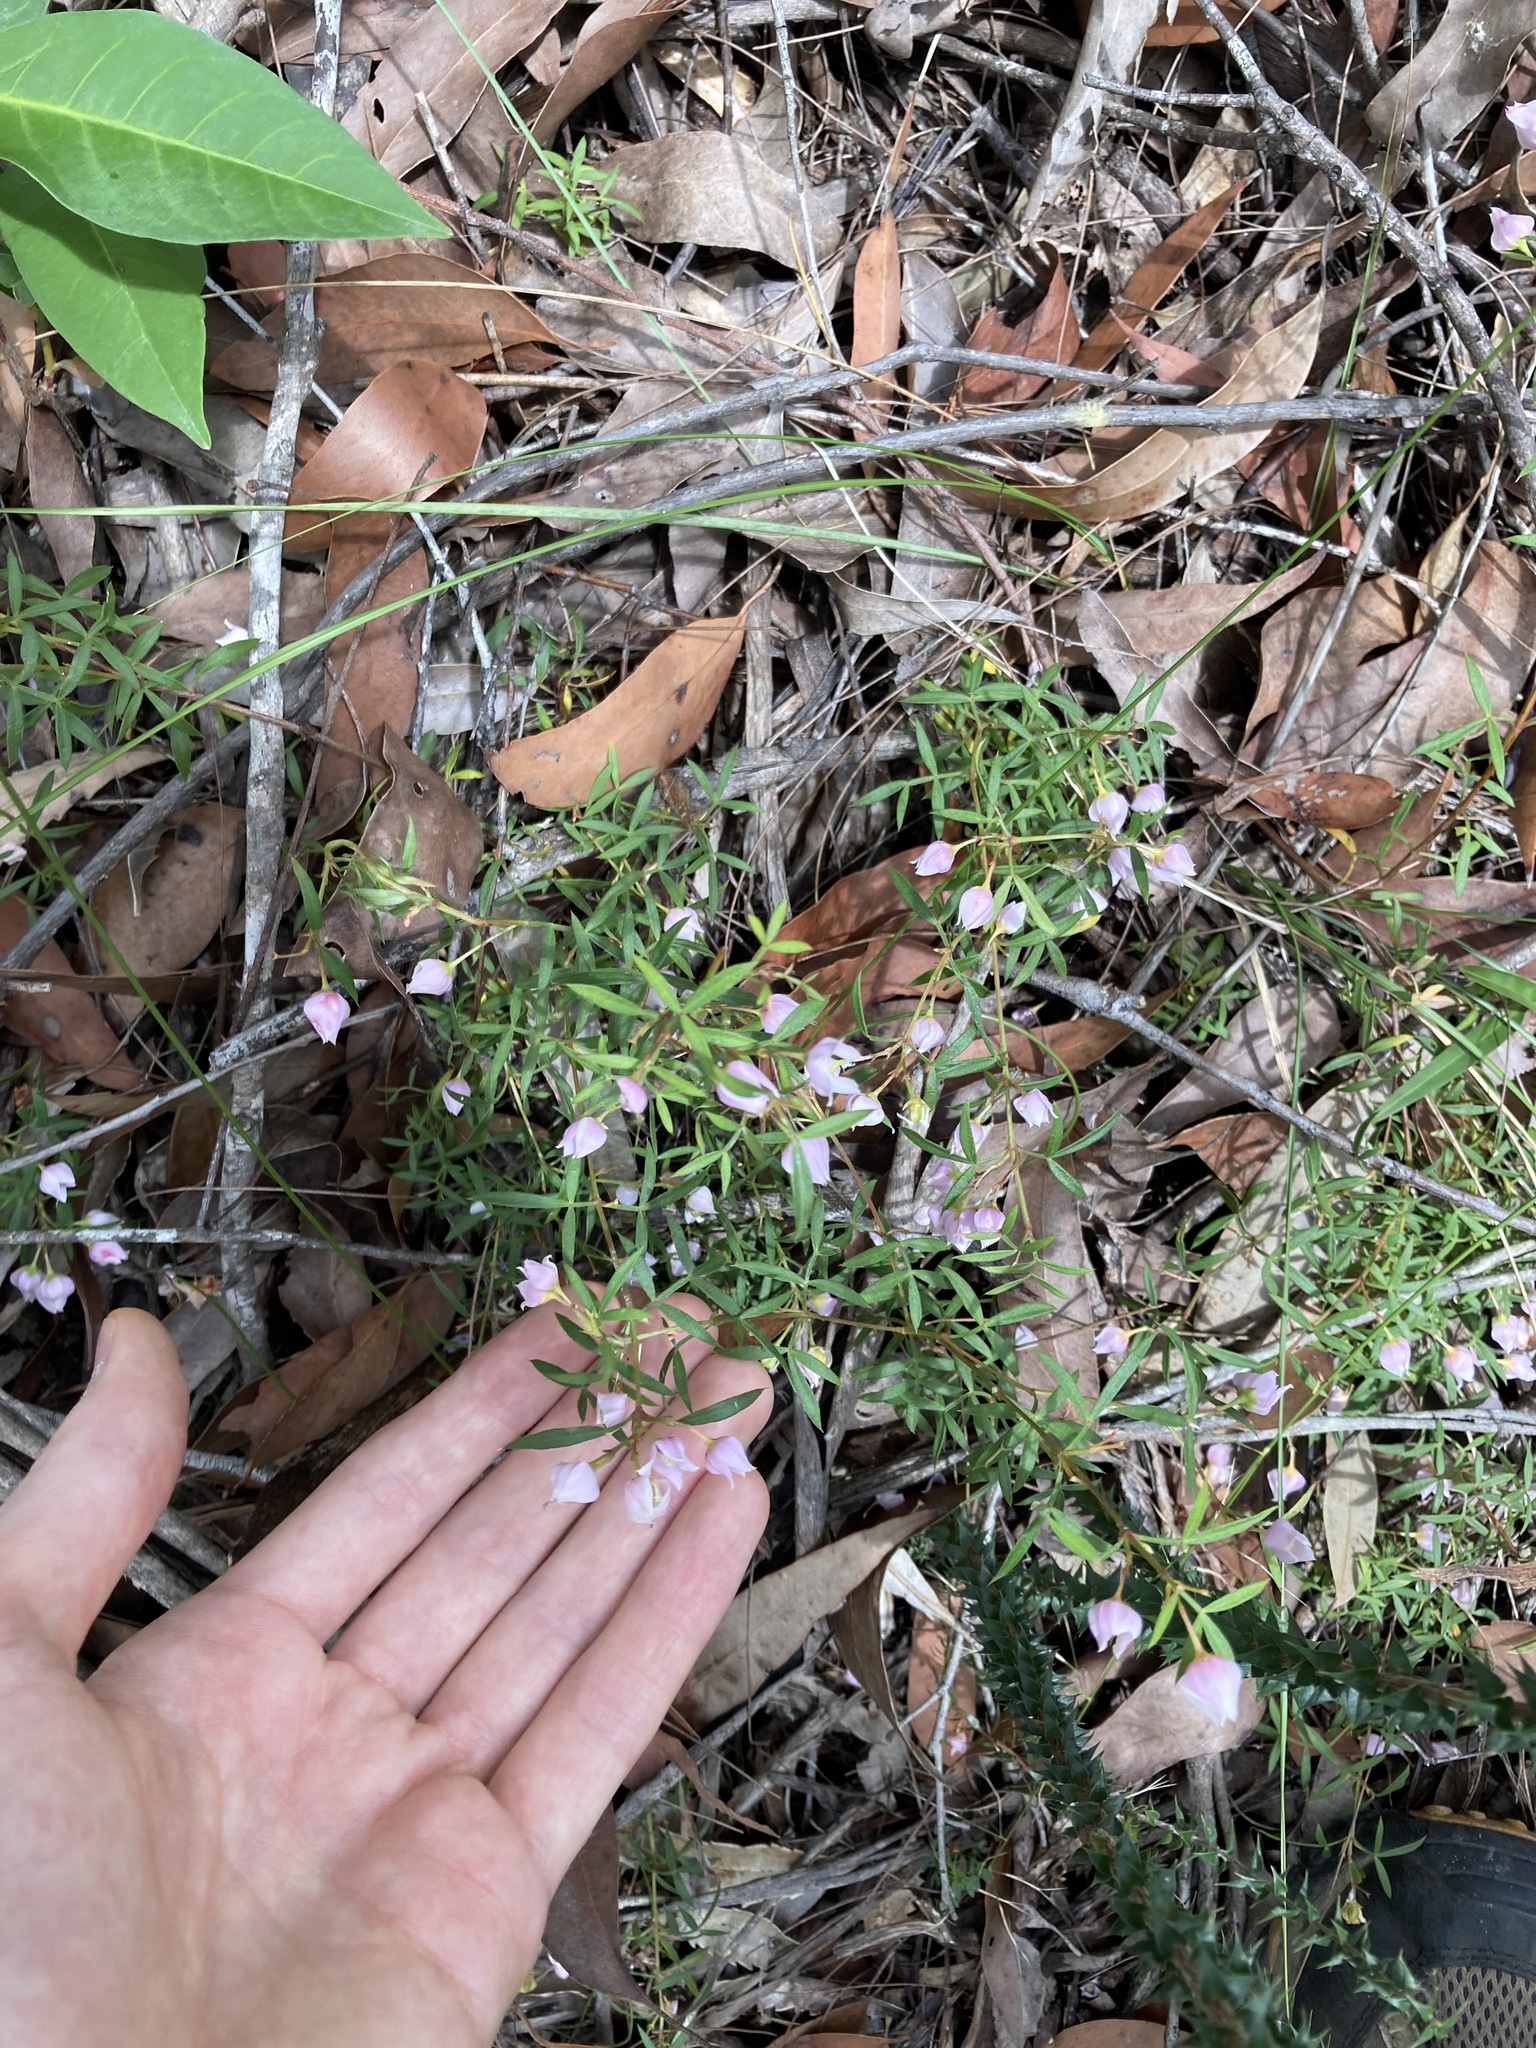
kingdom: Plantae
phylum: Tracheophyta
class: Magnoliopsida
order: Sapindales
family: Rutaceae
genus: Boronia
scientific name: Boronia floribunda
